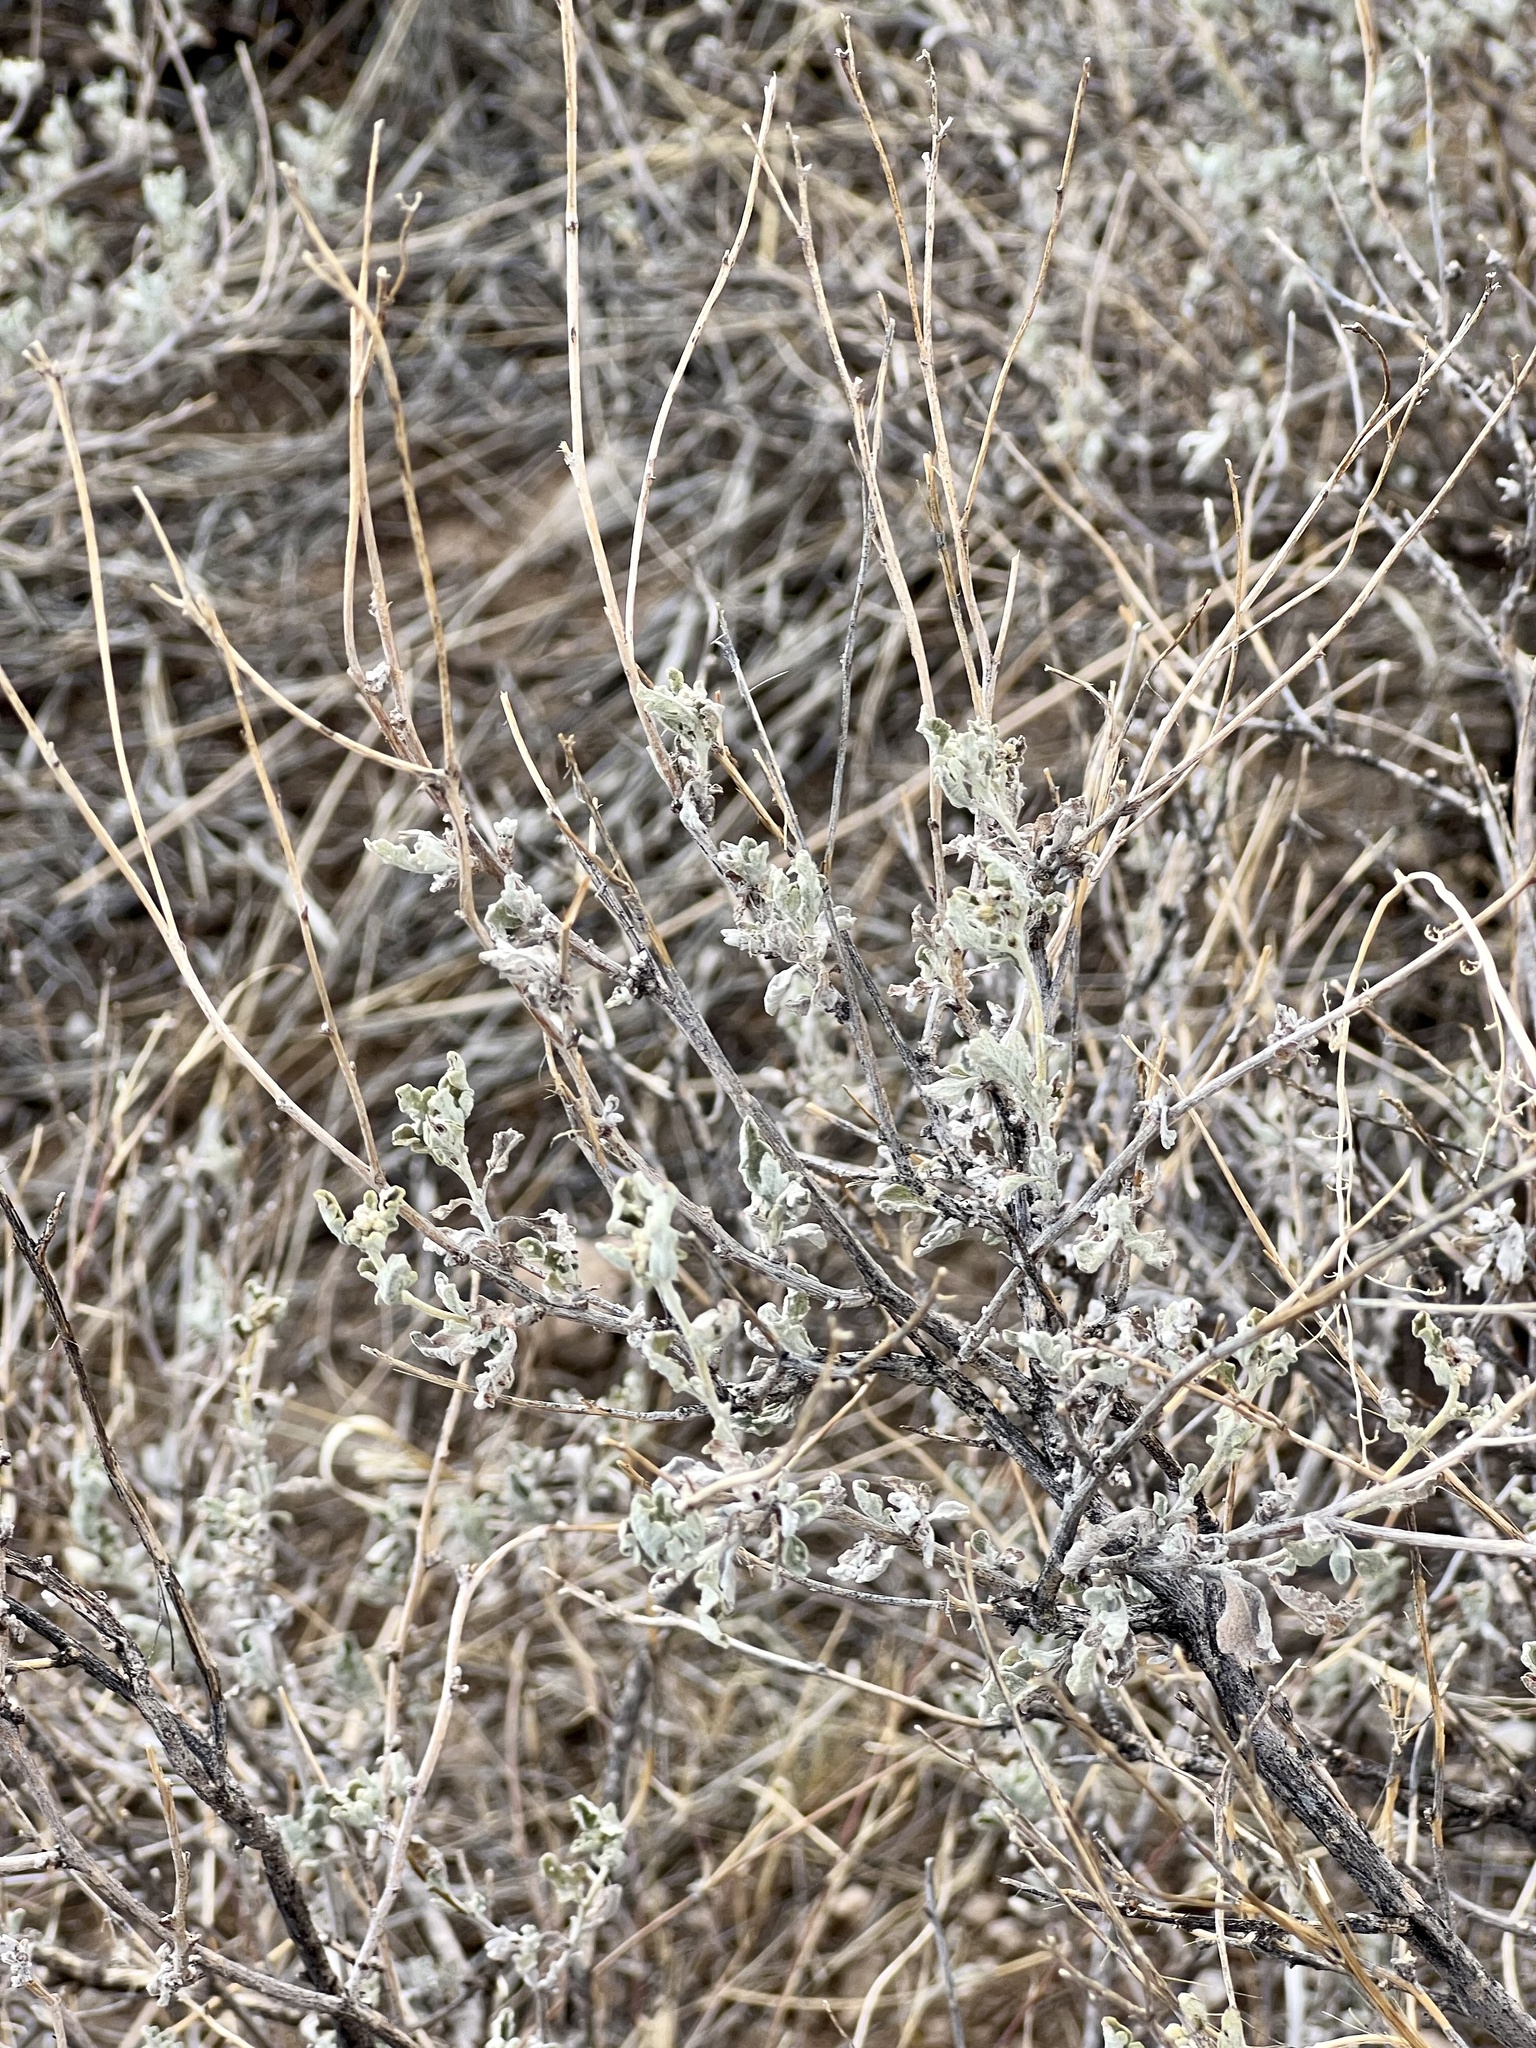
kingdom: Plantae
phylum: Tracheophyta
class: Magnoliopsida
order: Asterales
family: Asteraceae
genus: Parthenium
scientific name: Parthenium incanum
